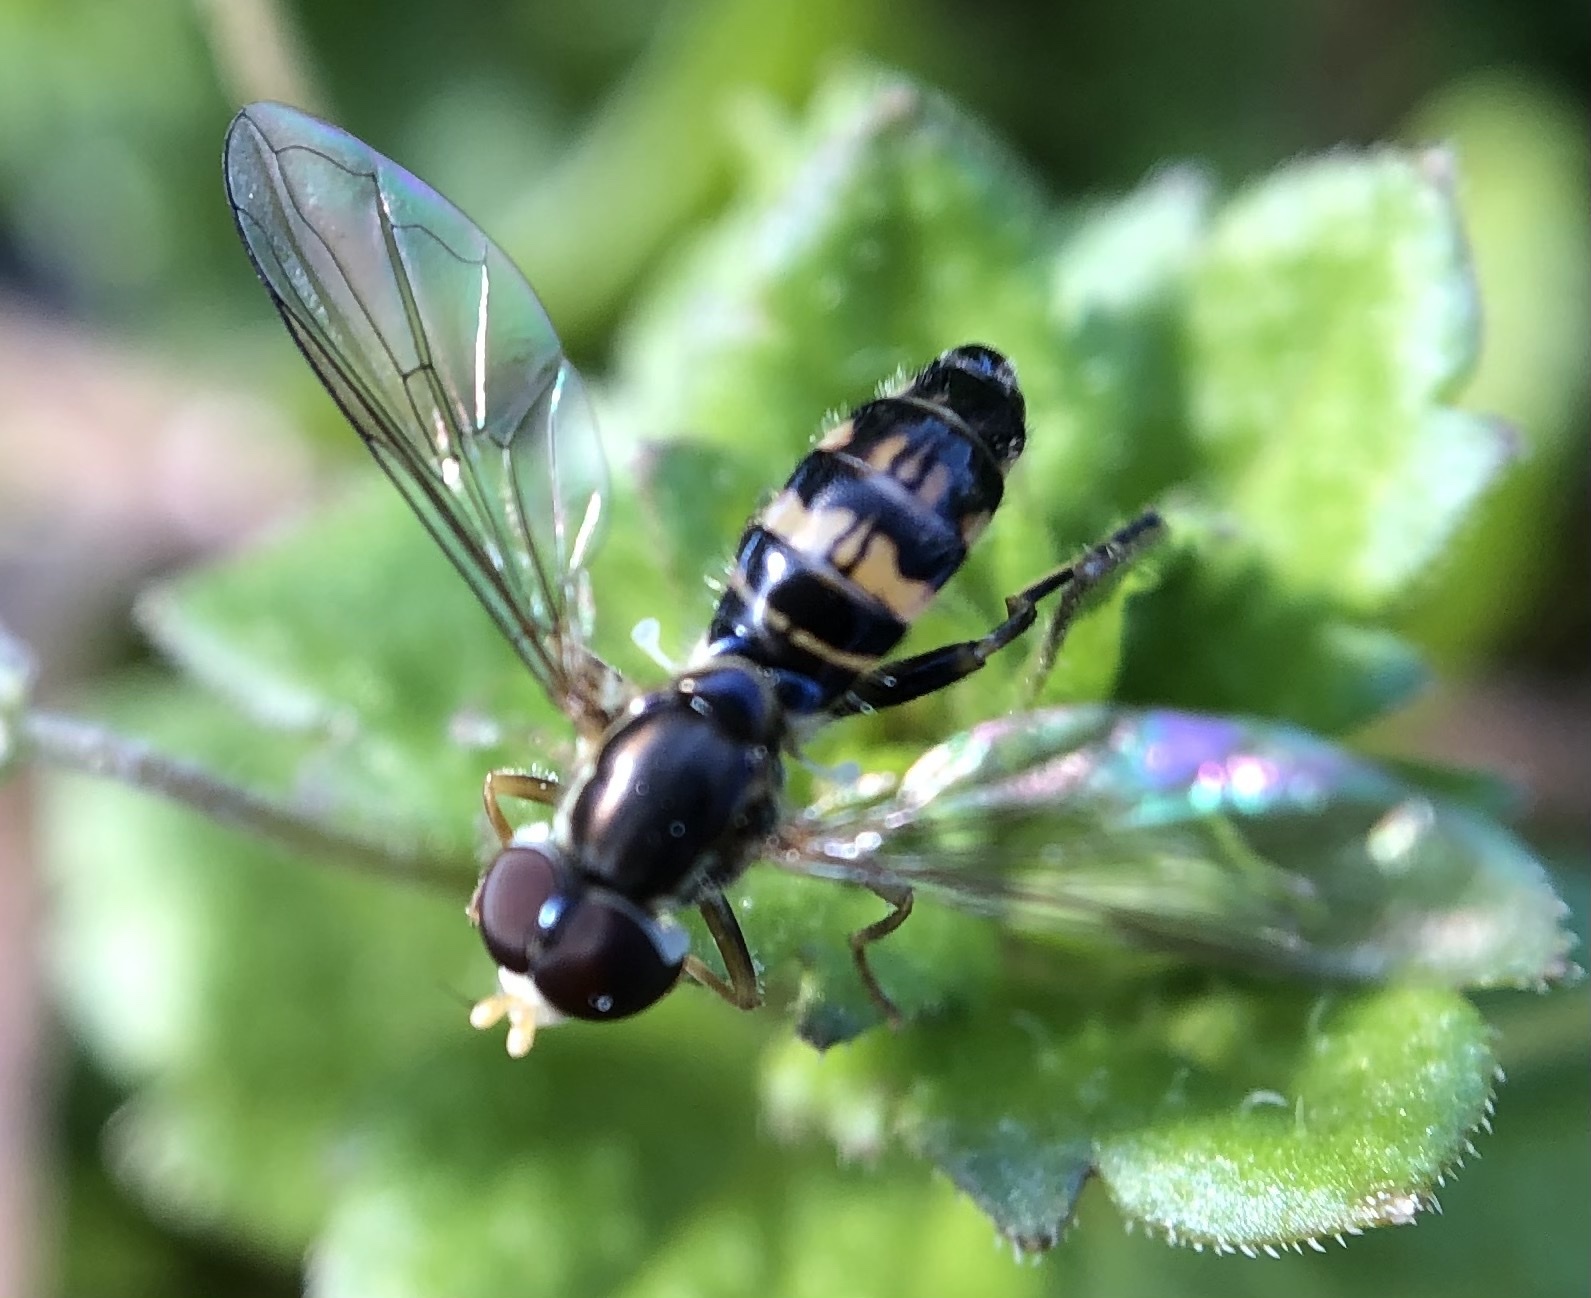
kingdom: Animalia
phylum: Arthropoda
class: Insecta
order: Diptera
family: Syrphidae
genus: Toxomerus
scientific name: Toxomerus geminatus
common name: Eastern calligrapher
